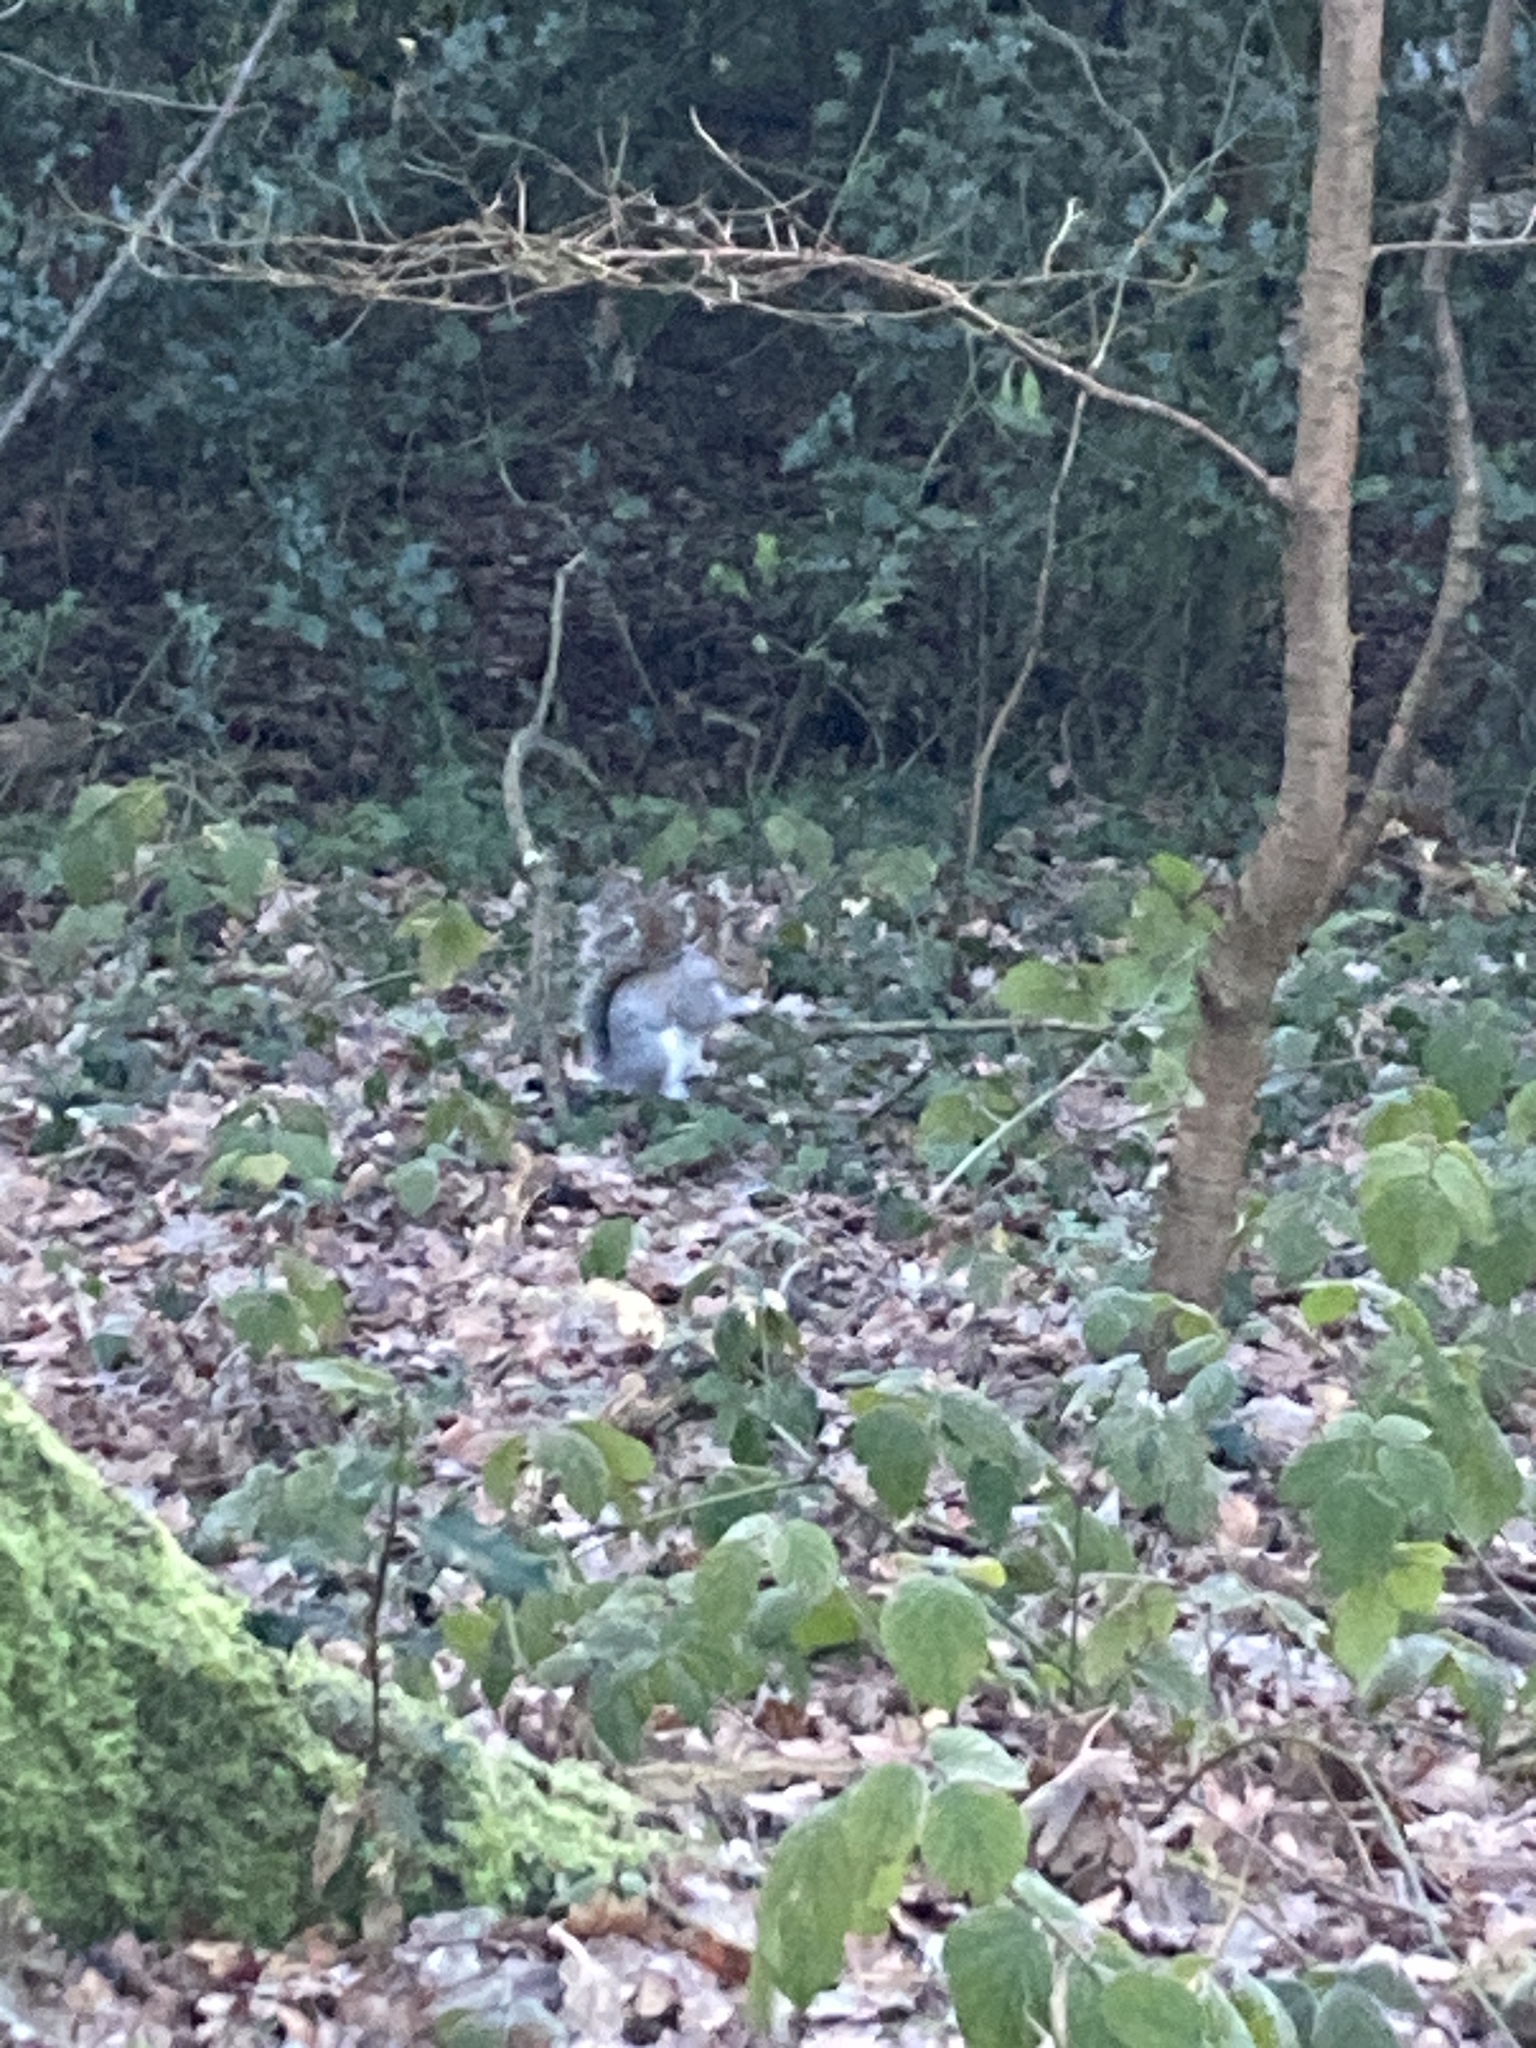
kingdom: Animalia
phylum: Chordata
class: Mammalia
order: Rodentia
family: Sciuridae
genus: Sciurus
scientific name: Sciurus carolinensis
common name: Eastern gray squirrel
